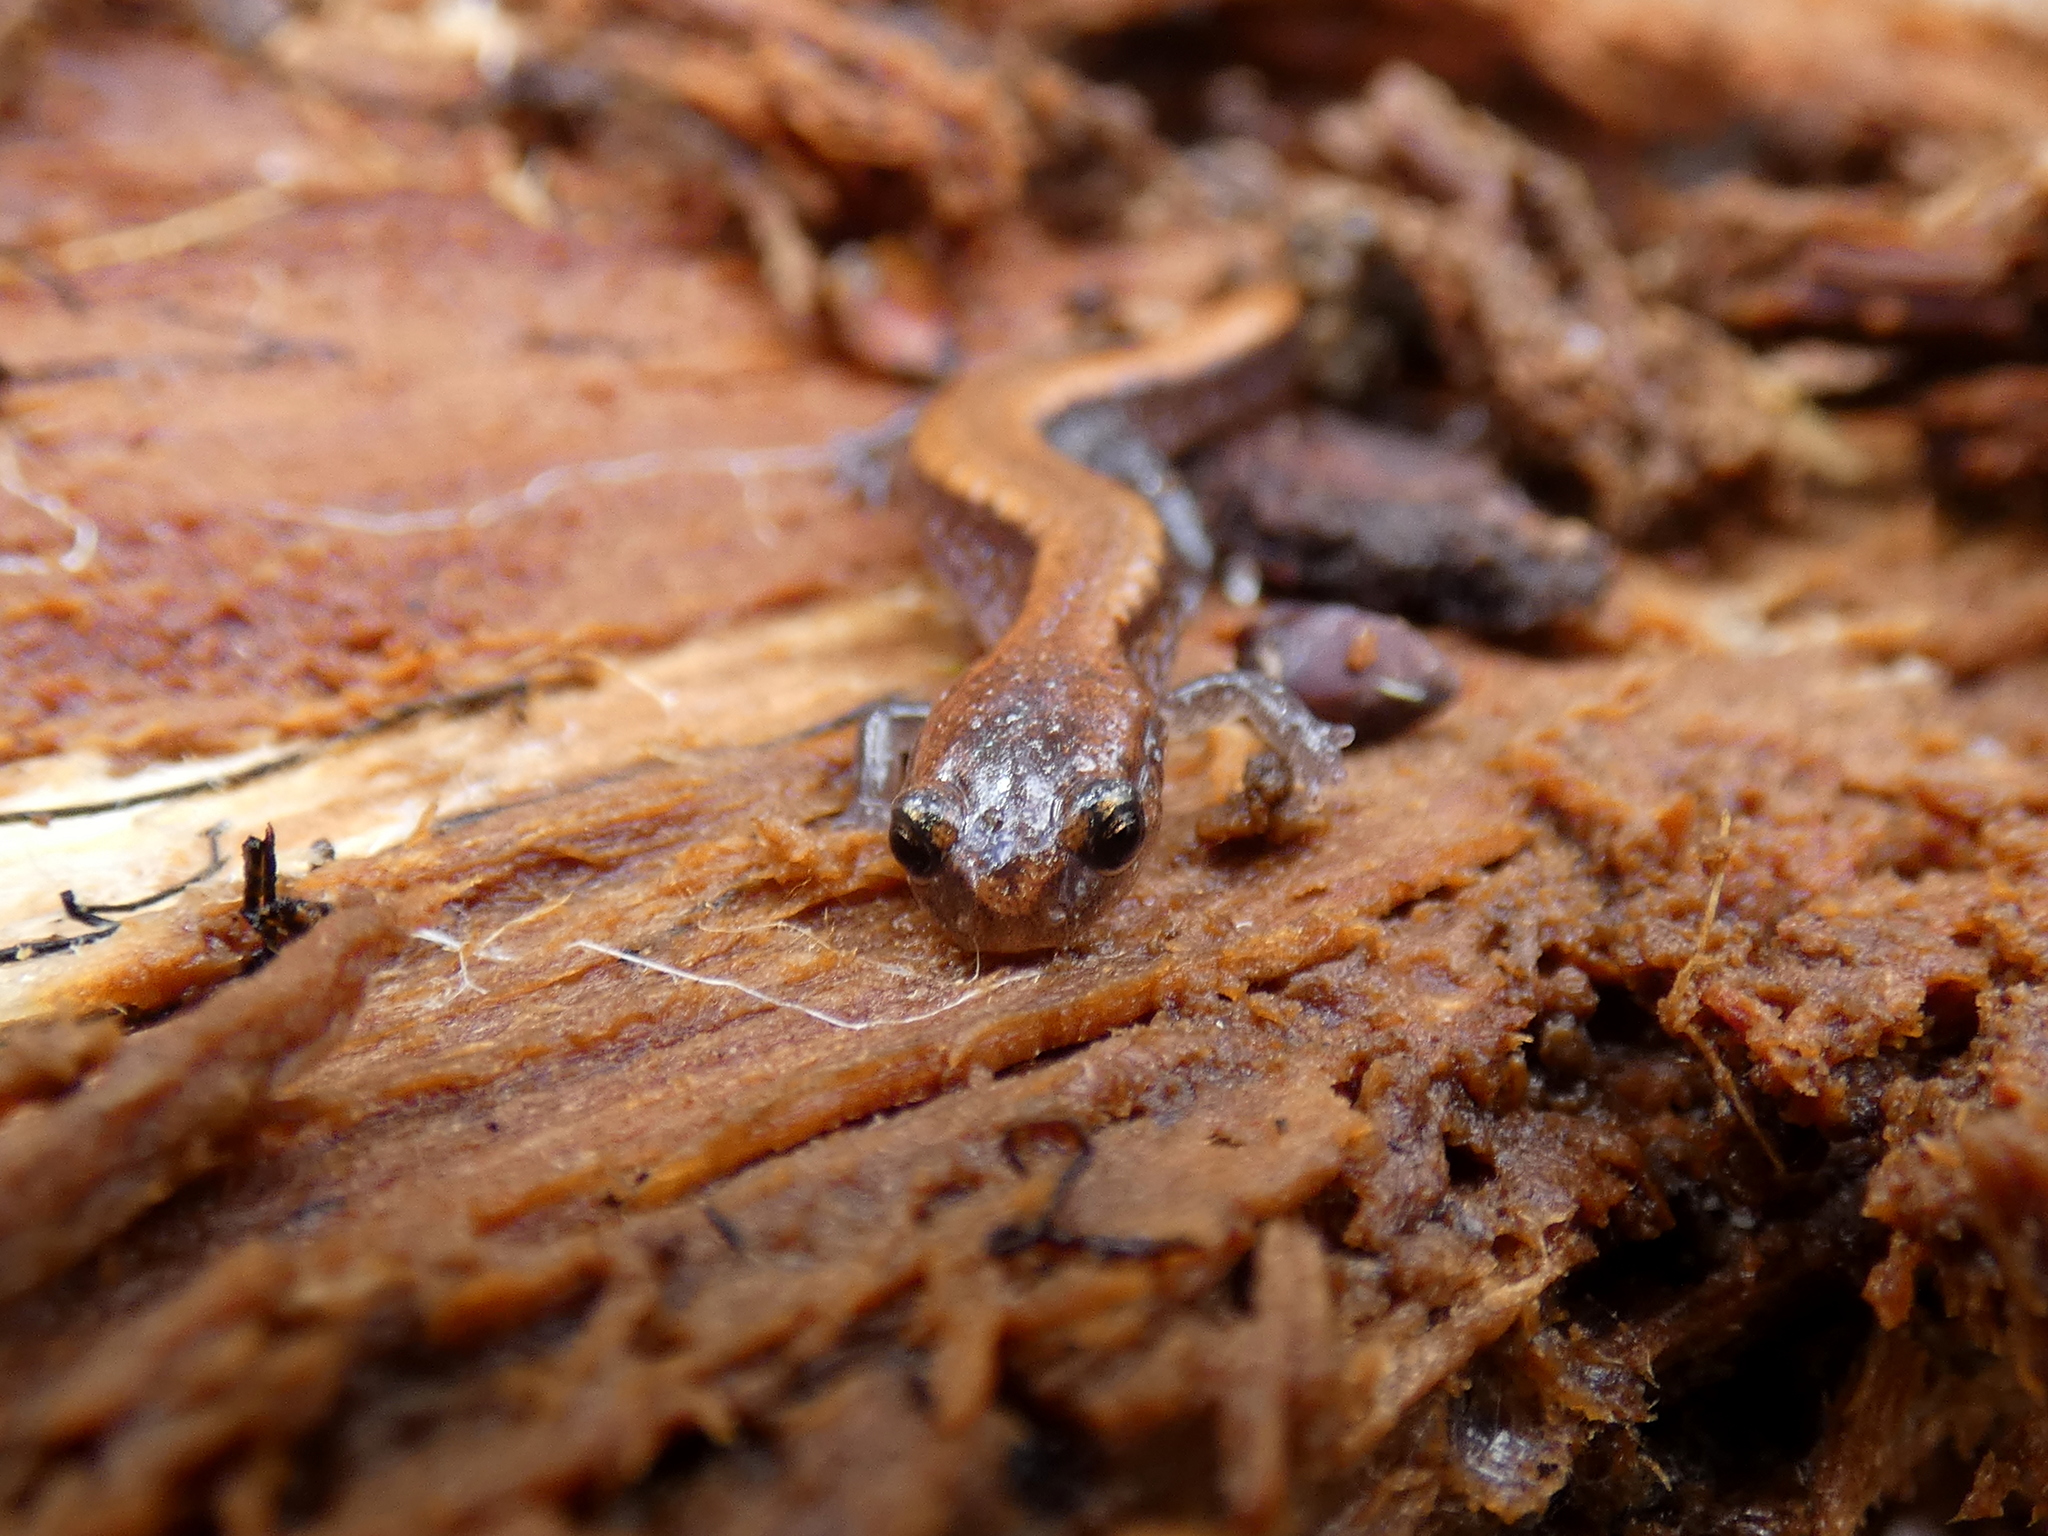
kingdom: Animalia
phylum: Chordata
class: Amphibia
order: Caudata
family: Plethodontidae
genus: Plethodon
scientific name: Plethodon cinereus
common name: Redback salamander
